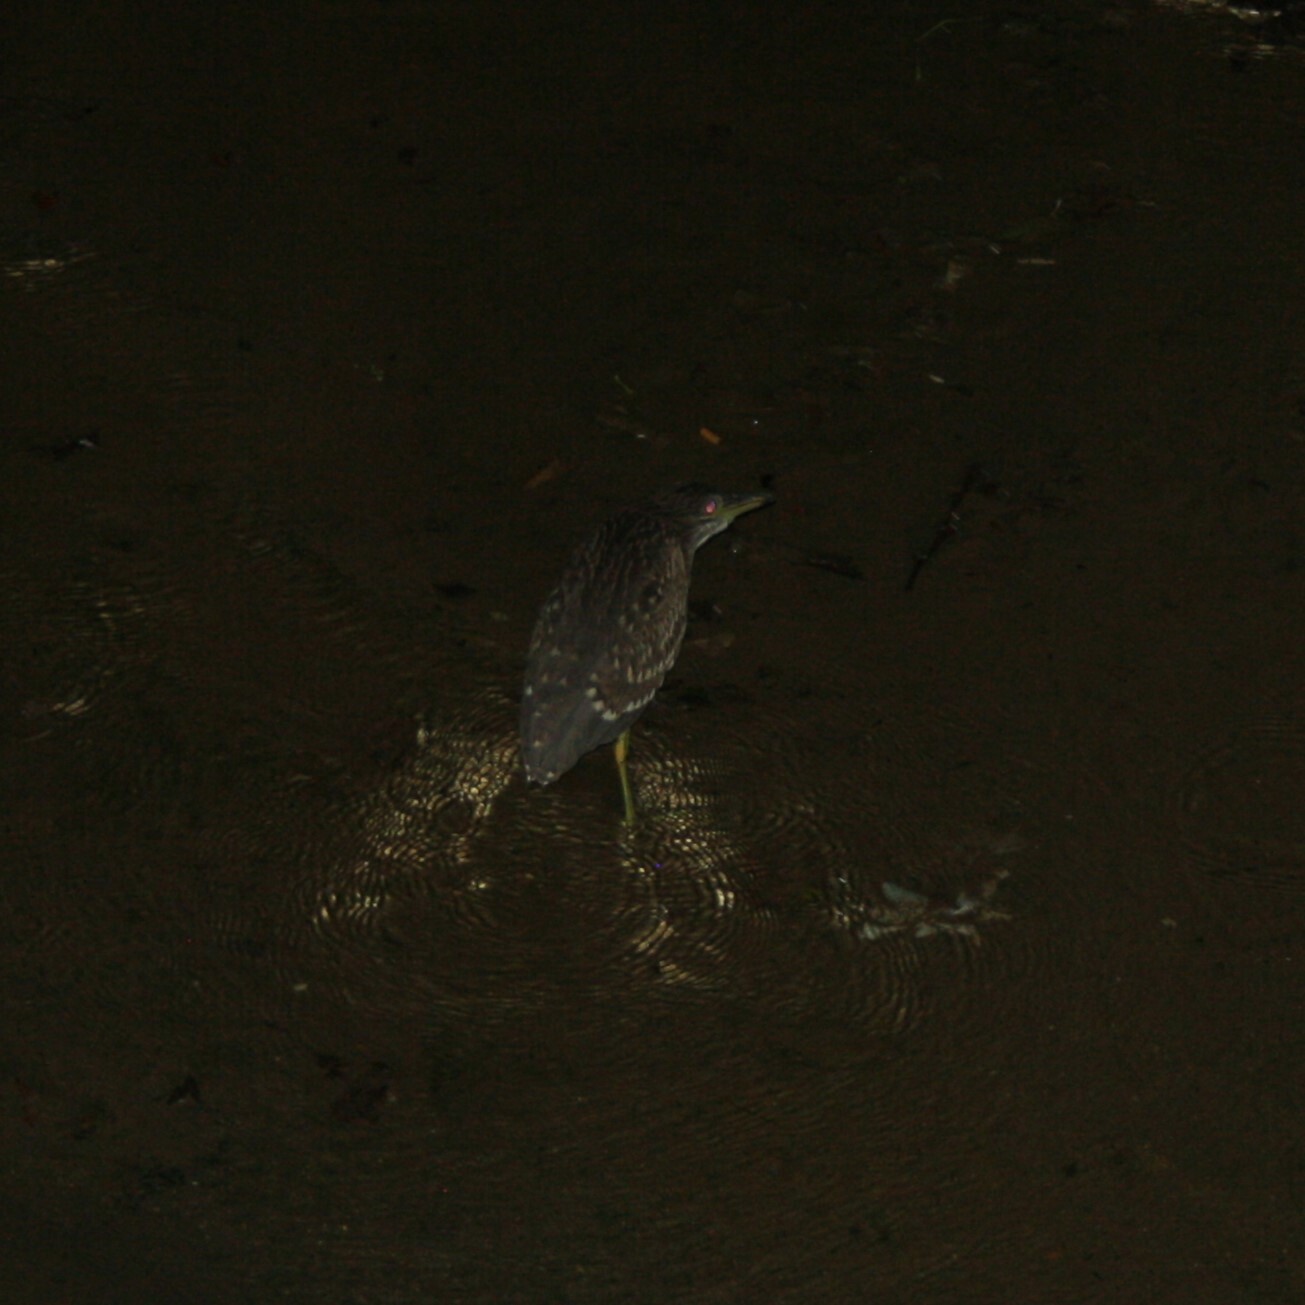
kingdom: Animalia
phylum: Chordata
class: Aves
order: Pelecaniformes
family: Ardeidae
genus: Nycticorax
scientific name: Nycticorax nycticorax
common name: Black-crowned night heron
